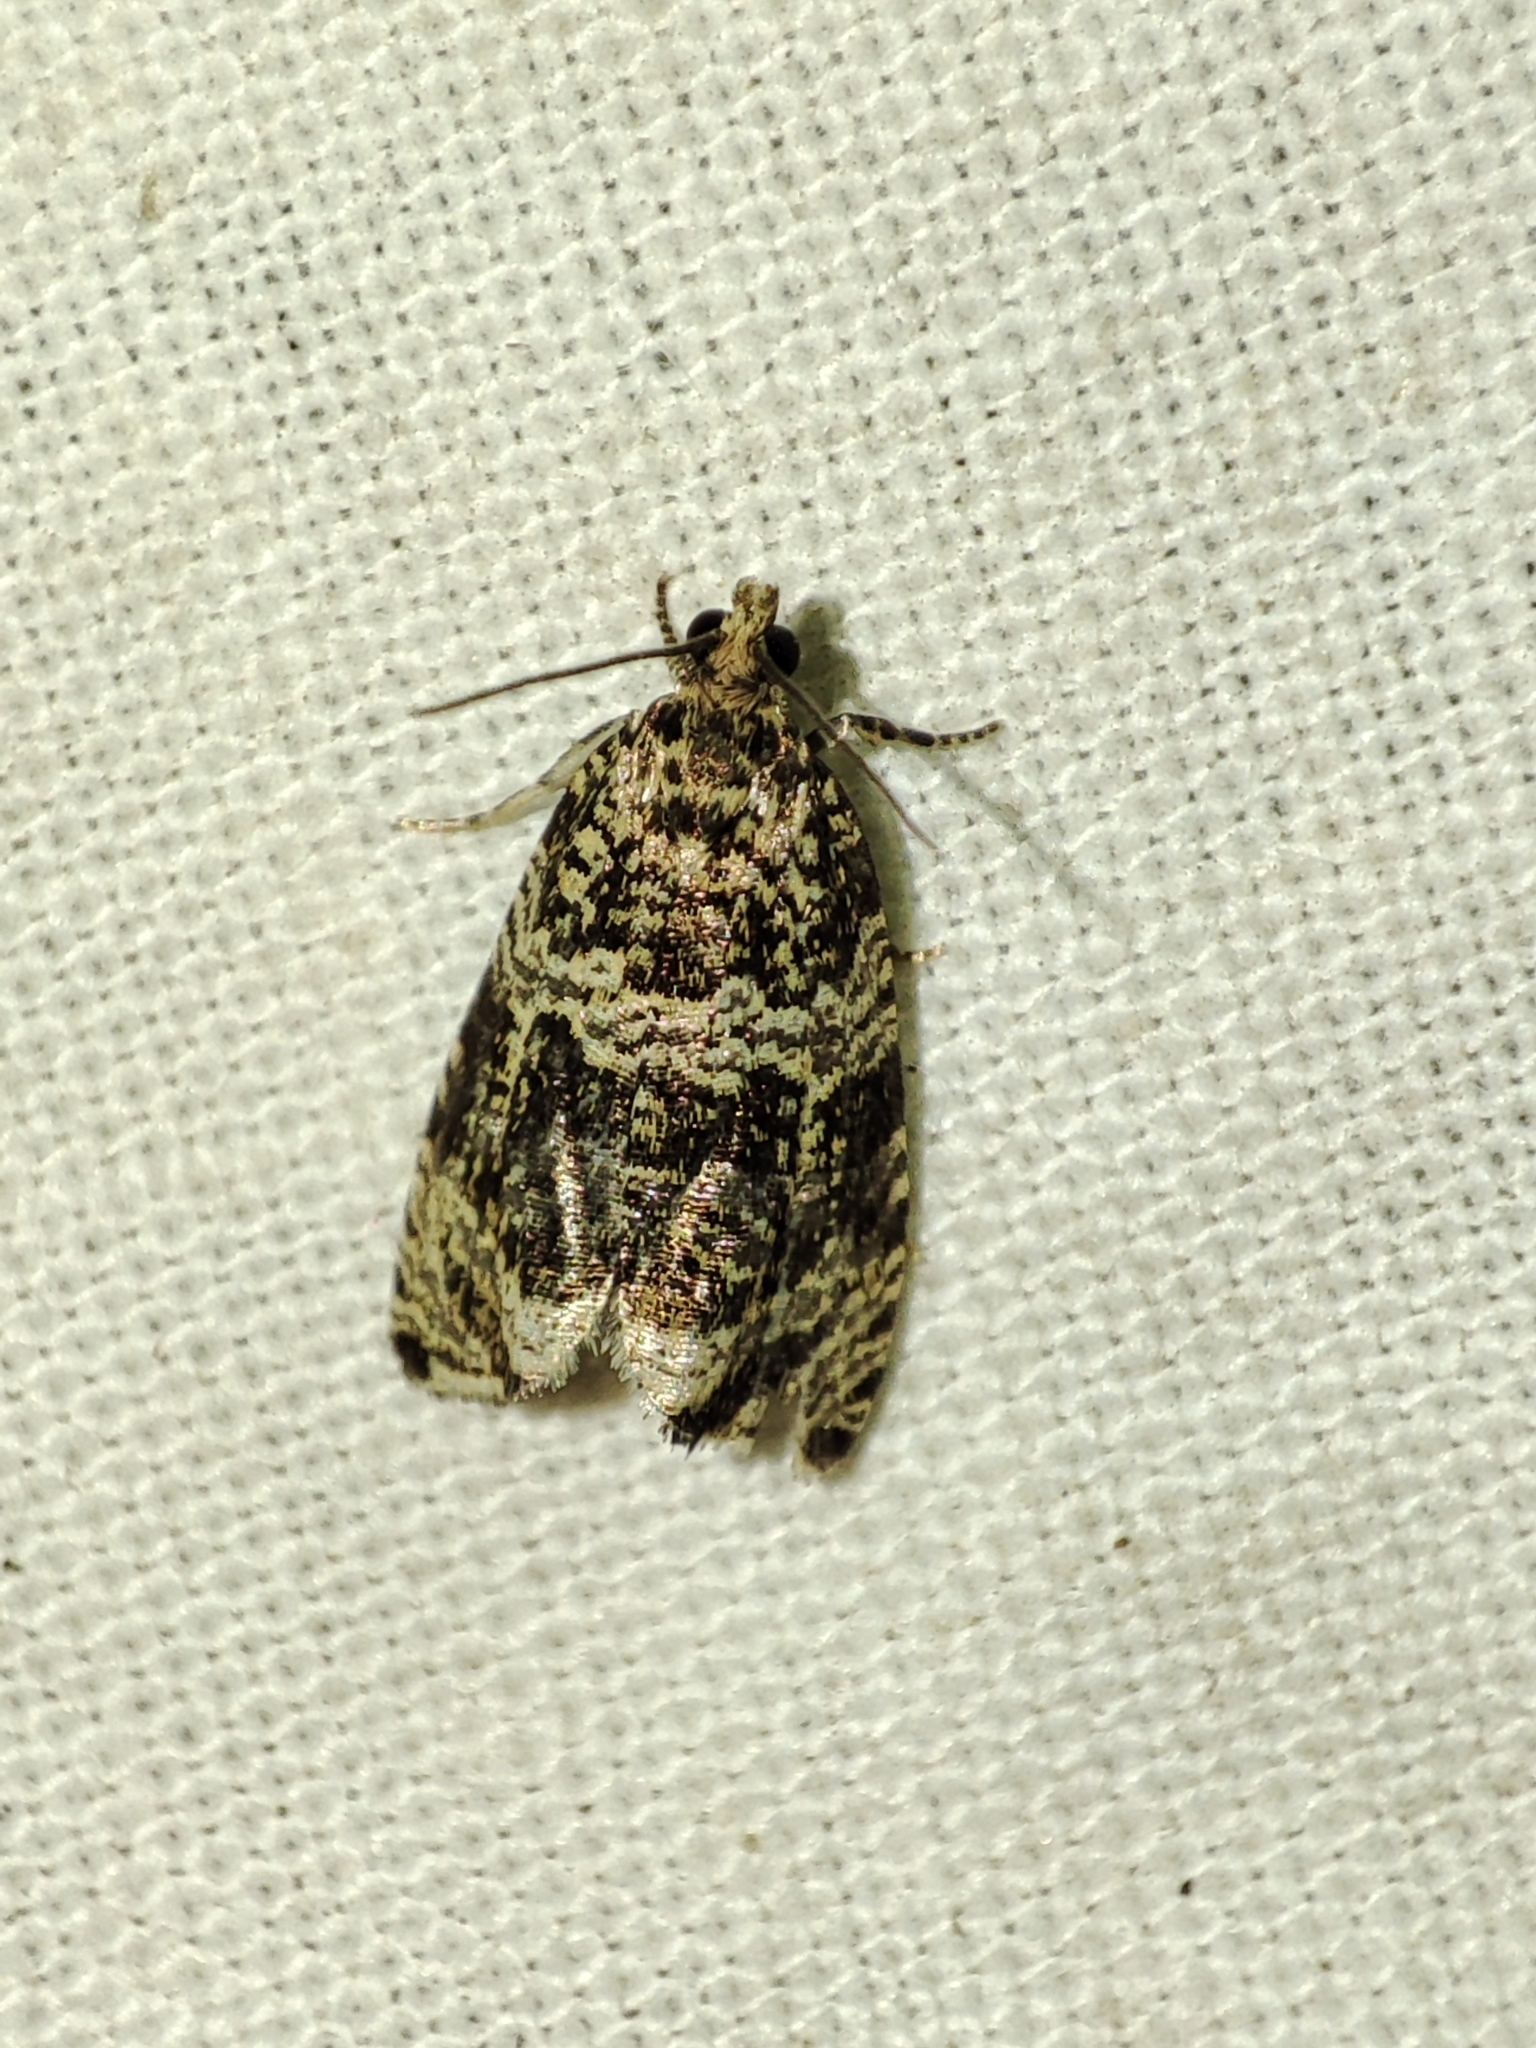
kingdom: Animalia
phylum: Arthropoda
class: Insecta
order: Lepidoptera
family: Tortricidae
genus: Syricoris
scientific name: Syricoris lacunana
